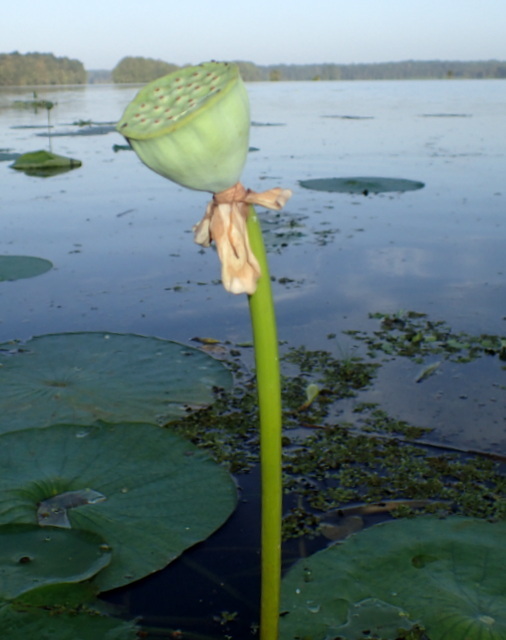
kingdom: Plantae
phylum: Tracheophyta
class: Magnoliopsida
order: Proteales
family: Nelumbonaceae
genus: Nelumbo
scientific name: Nelumbo lutea
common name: American lotus
